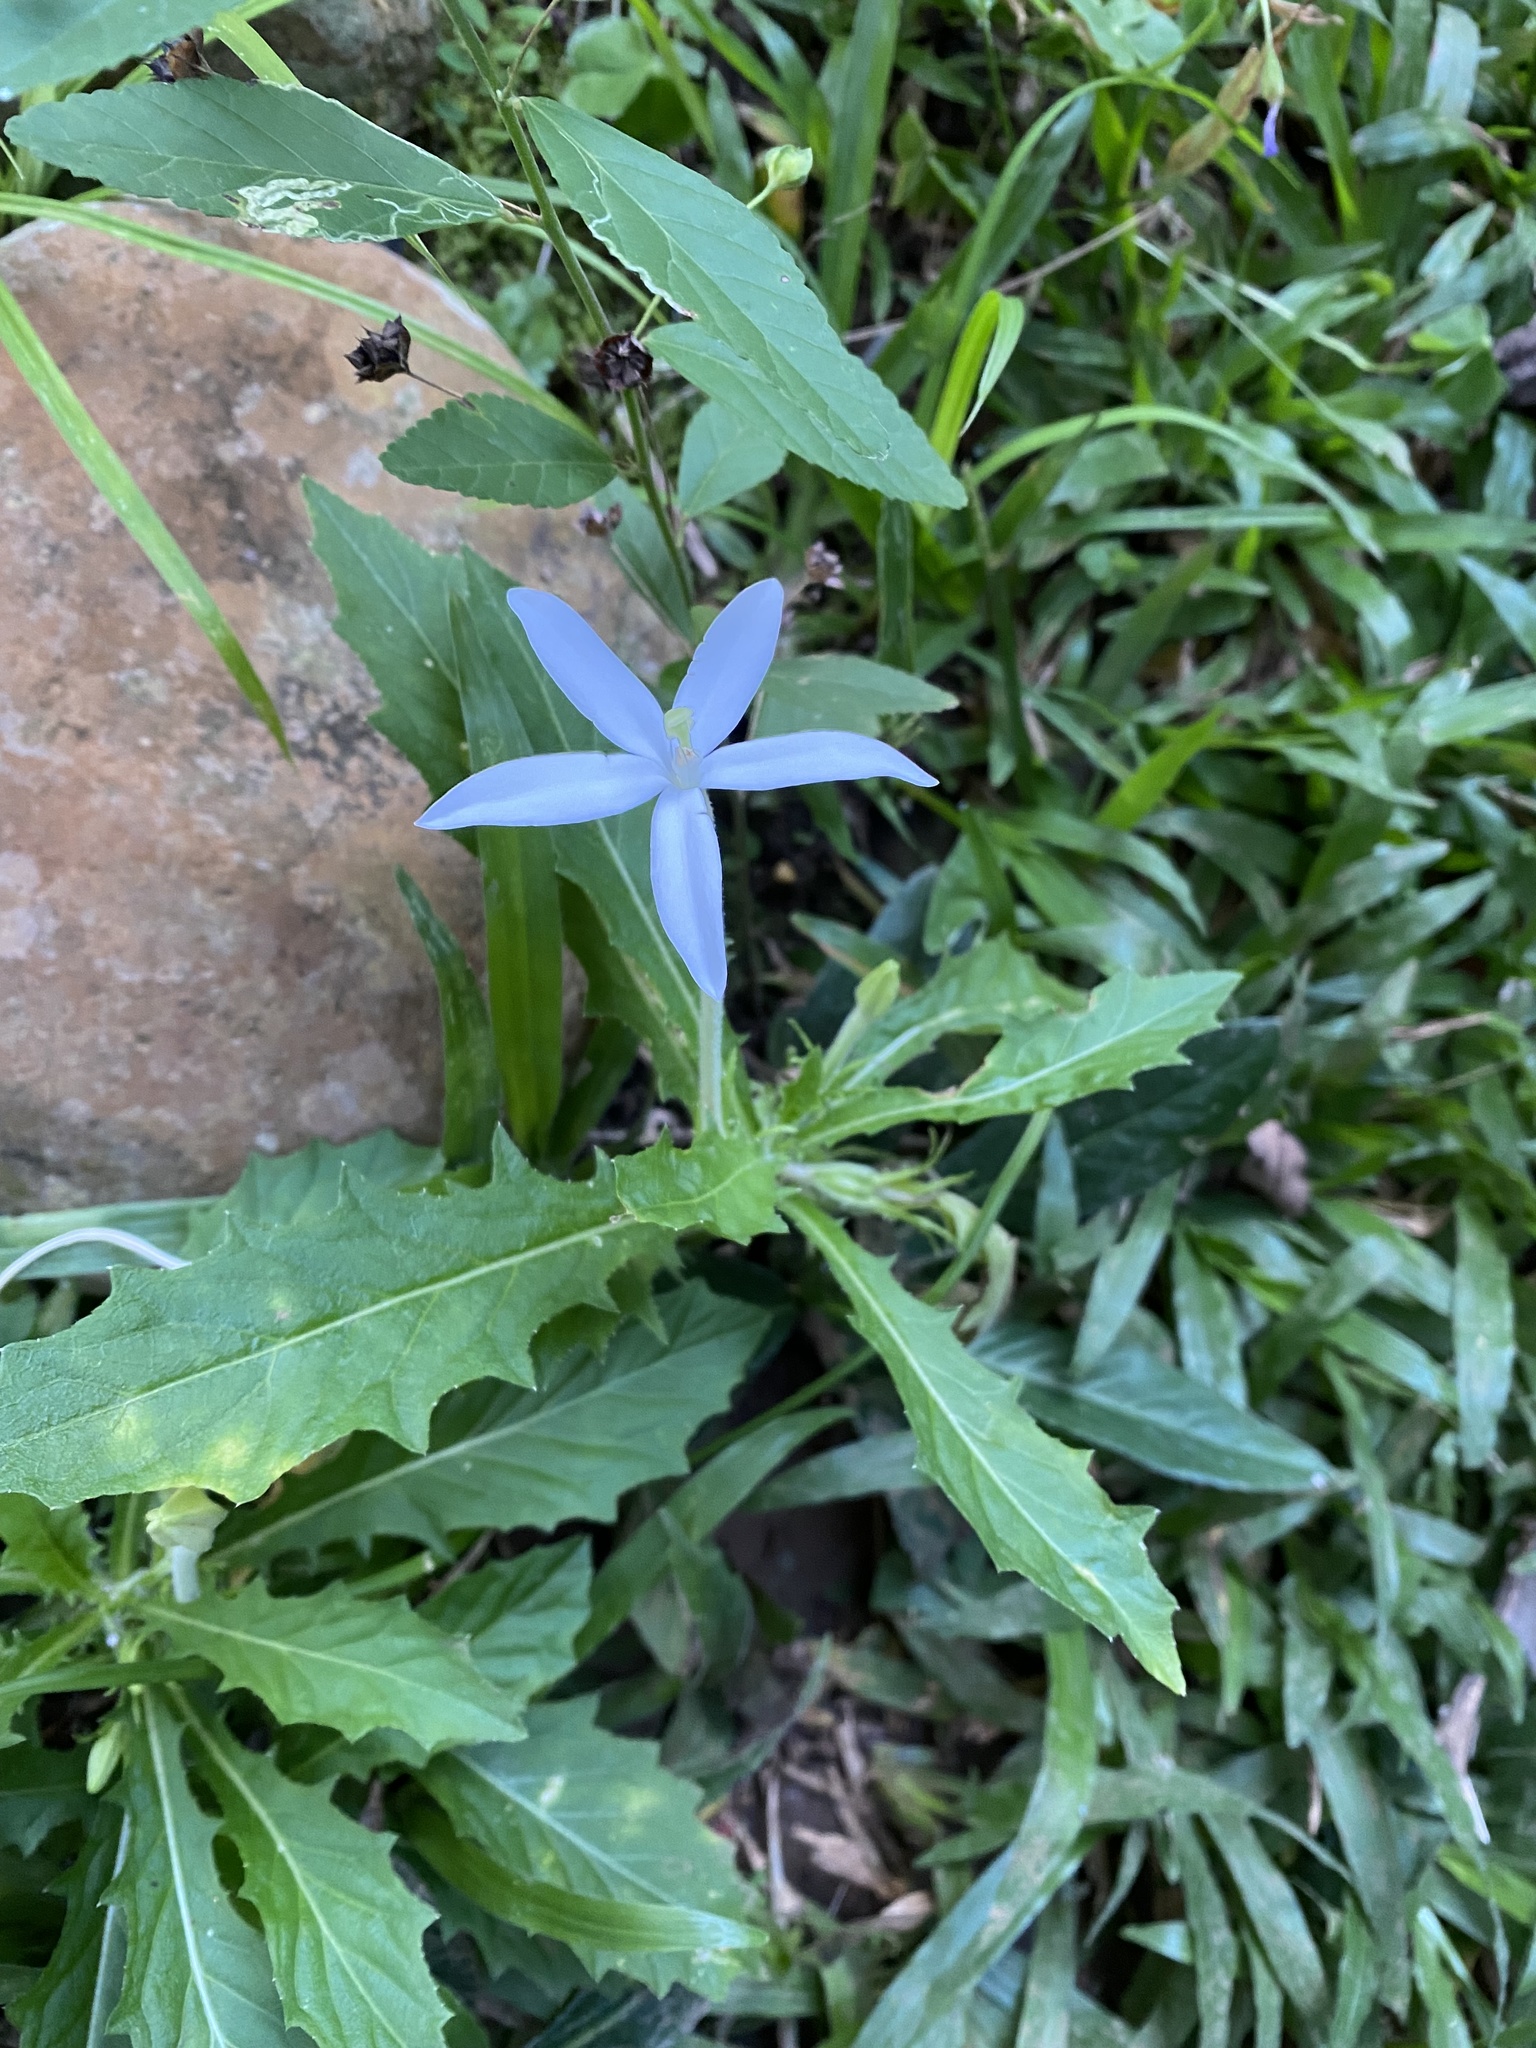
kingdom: Plantae
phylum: Tracheophyta
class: Magnoliopsida
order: Asterales
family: Campanulaceae
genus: Hippobroma
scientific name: Hippobroma longiflora
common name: Madamfate
